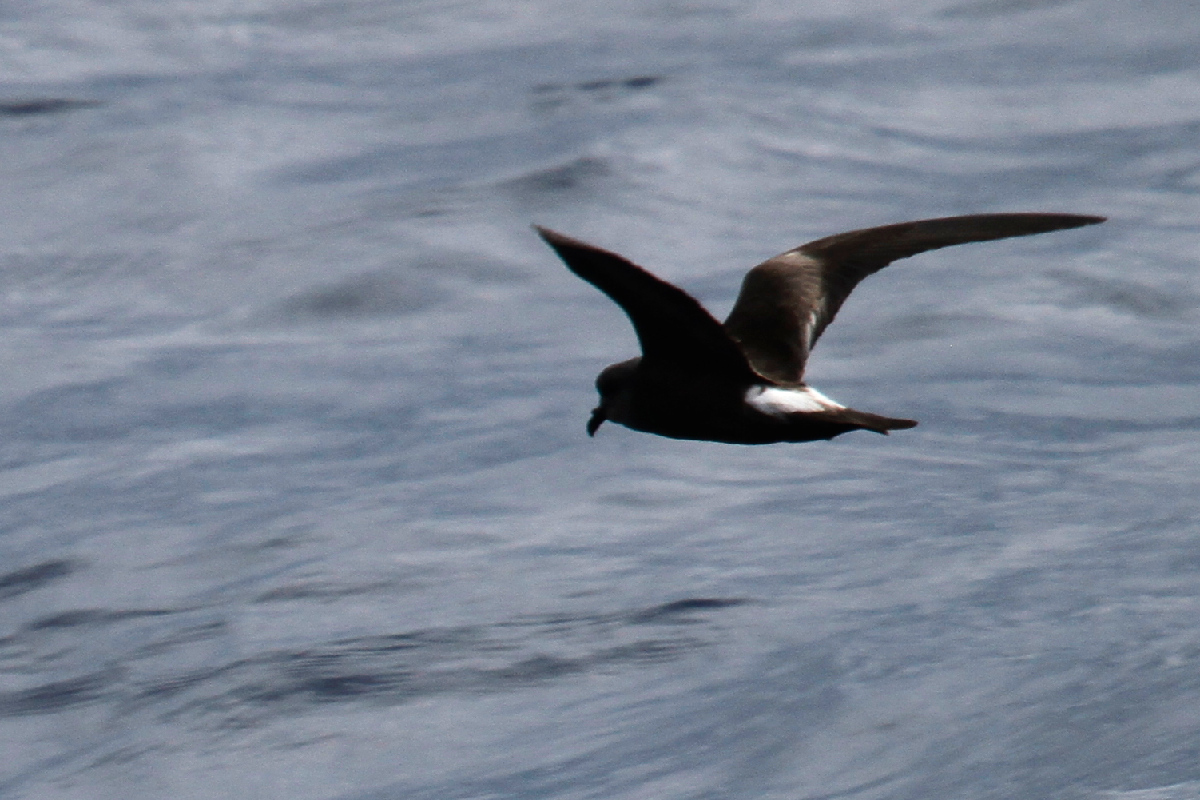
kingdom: Animalia
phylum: Chordata
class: Aves
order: Procellariiformes
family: Hydrobatidae
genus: Oceanodroma
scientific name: Oceanodroma leucorhoa
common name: Leach's storm-petrel
